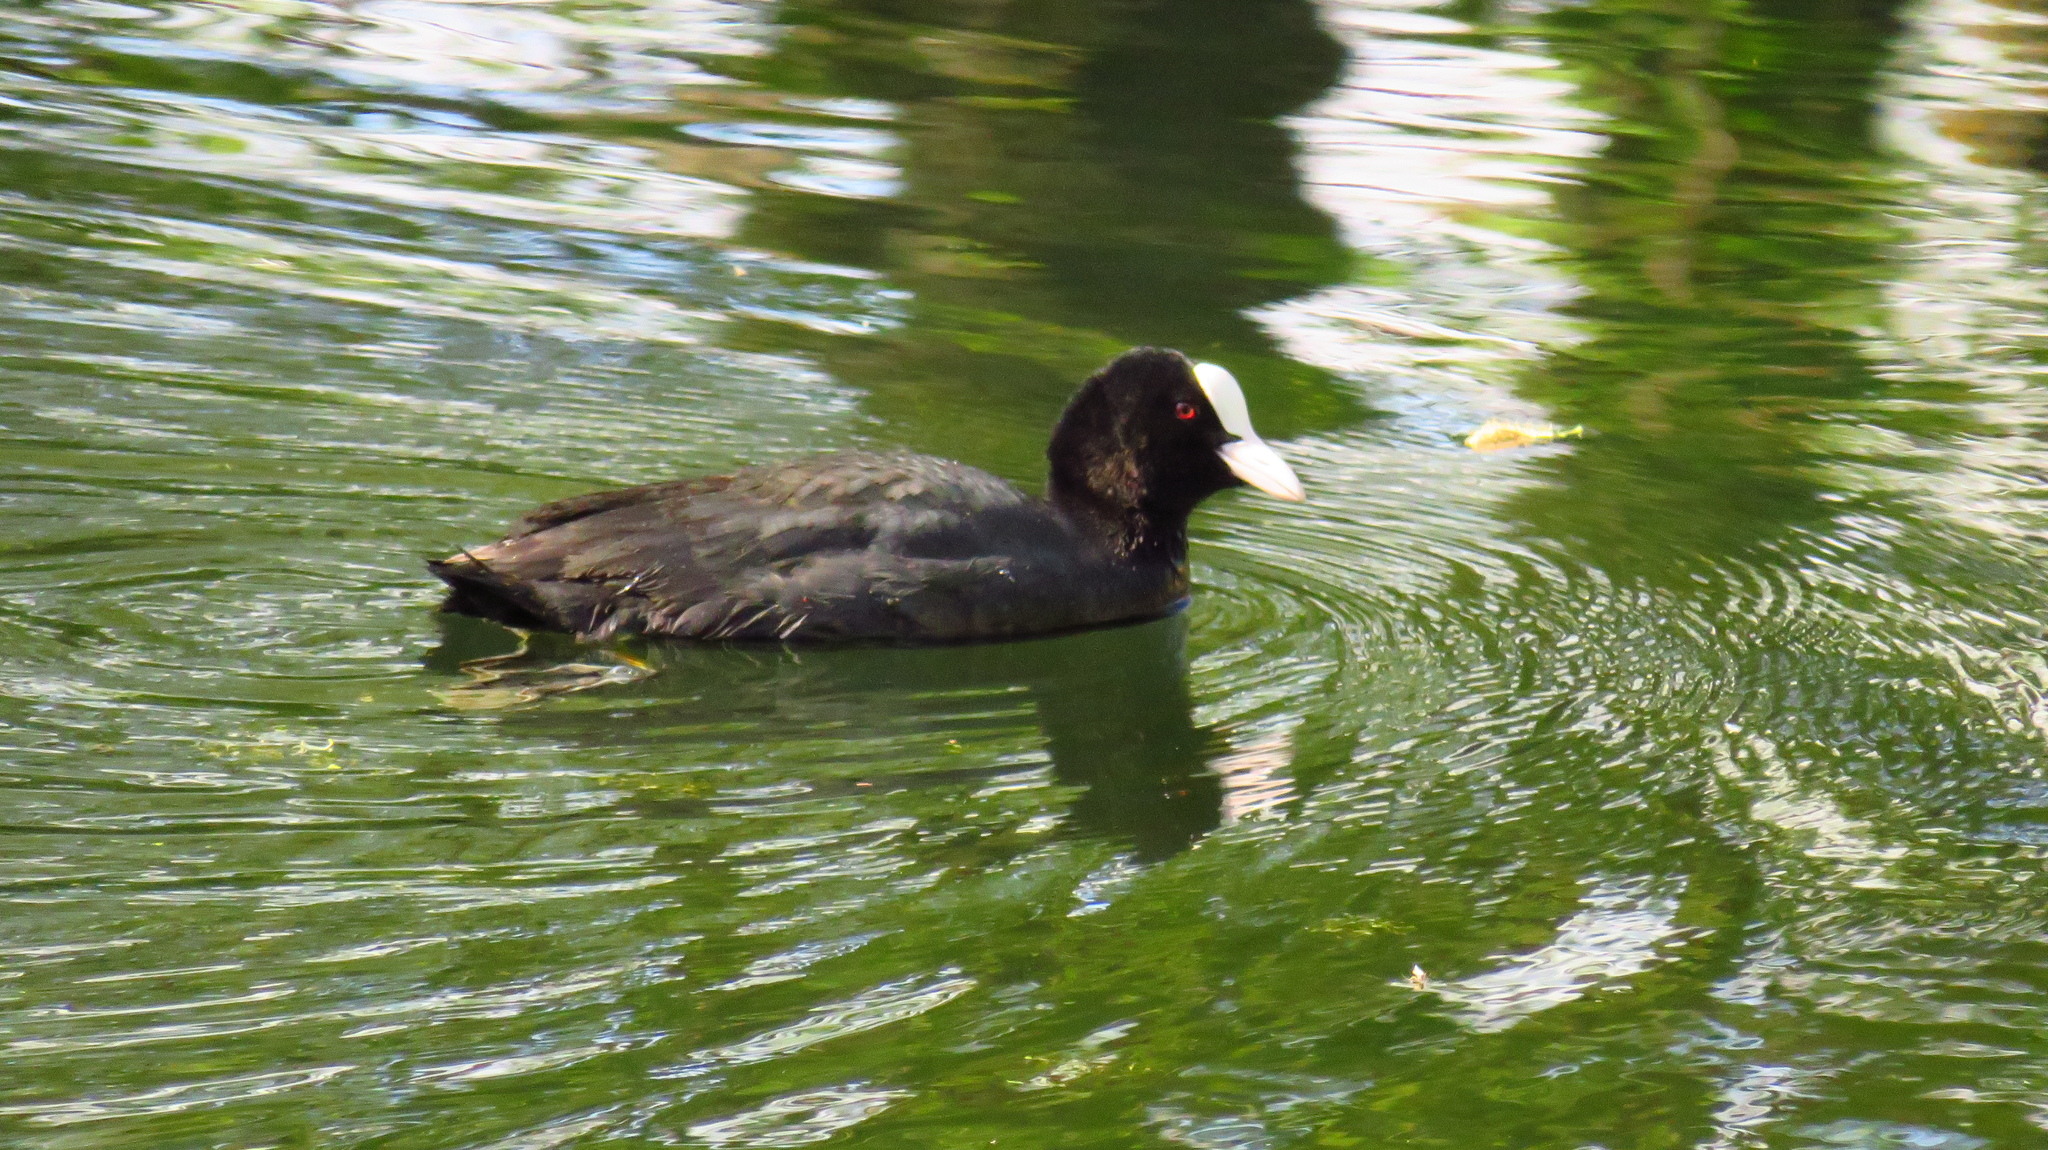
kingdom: Animalia
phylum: Chordata
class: Aves
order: Gruiformes
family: Rallidae
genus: Fulica
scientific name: Fulica atra
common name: Eurasian coot
